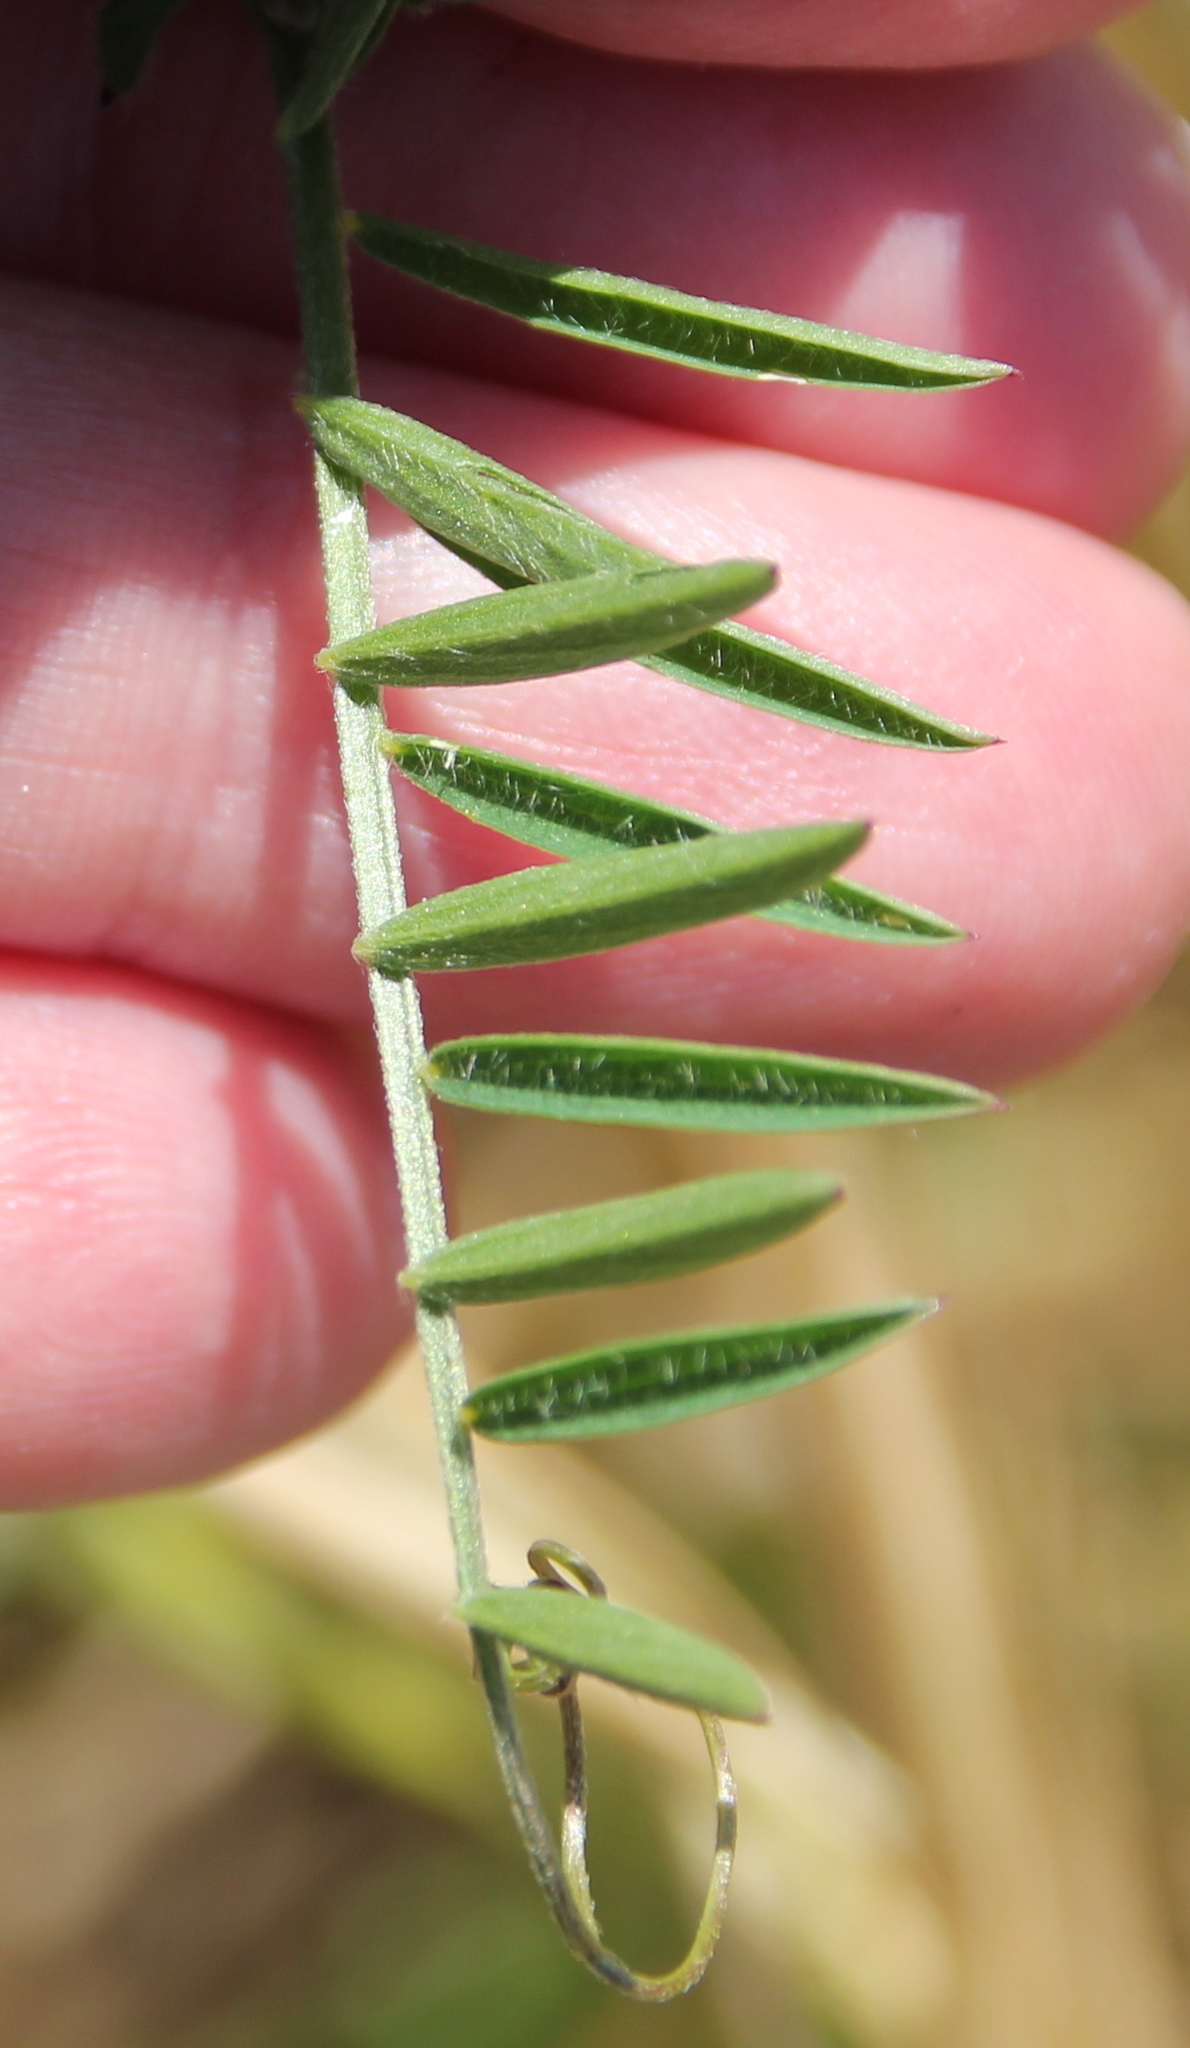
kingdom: Plantae
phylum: Tracheophyta
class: Magnoliopsida
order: Fabales
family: Fabaceae
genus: Vicia
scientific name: Vicia villosa
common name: Fodder vetch
